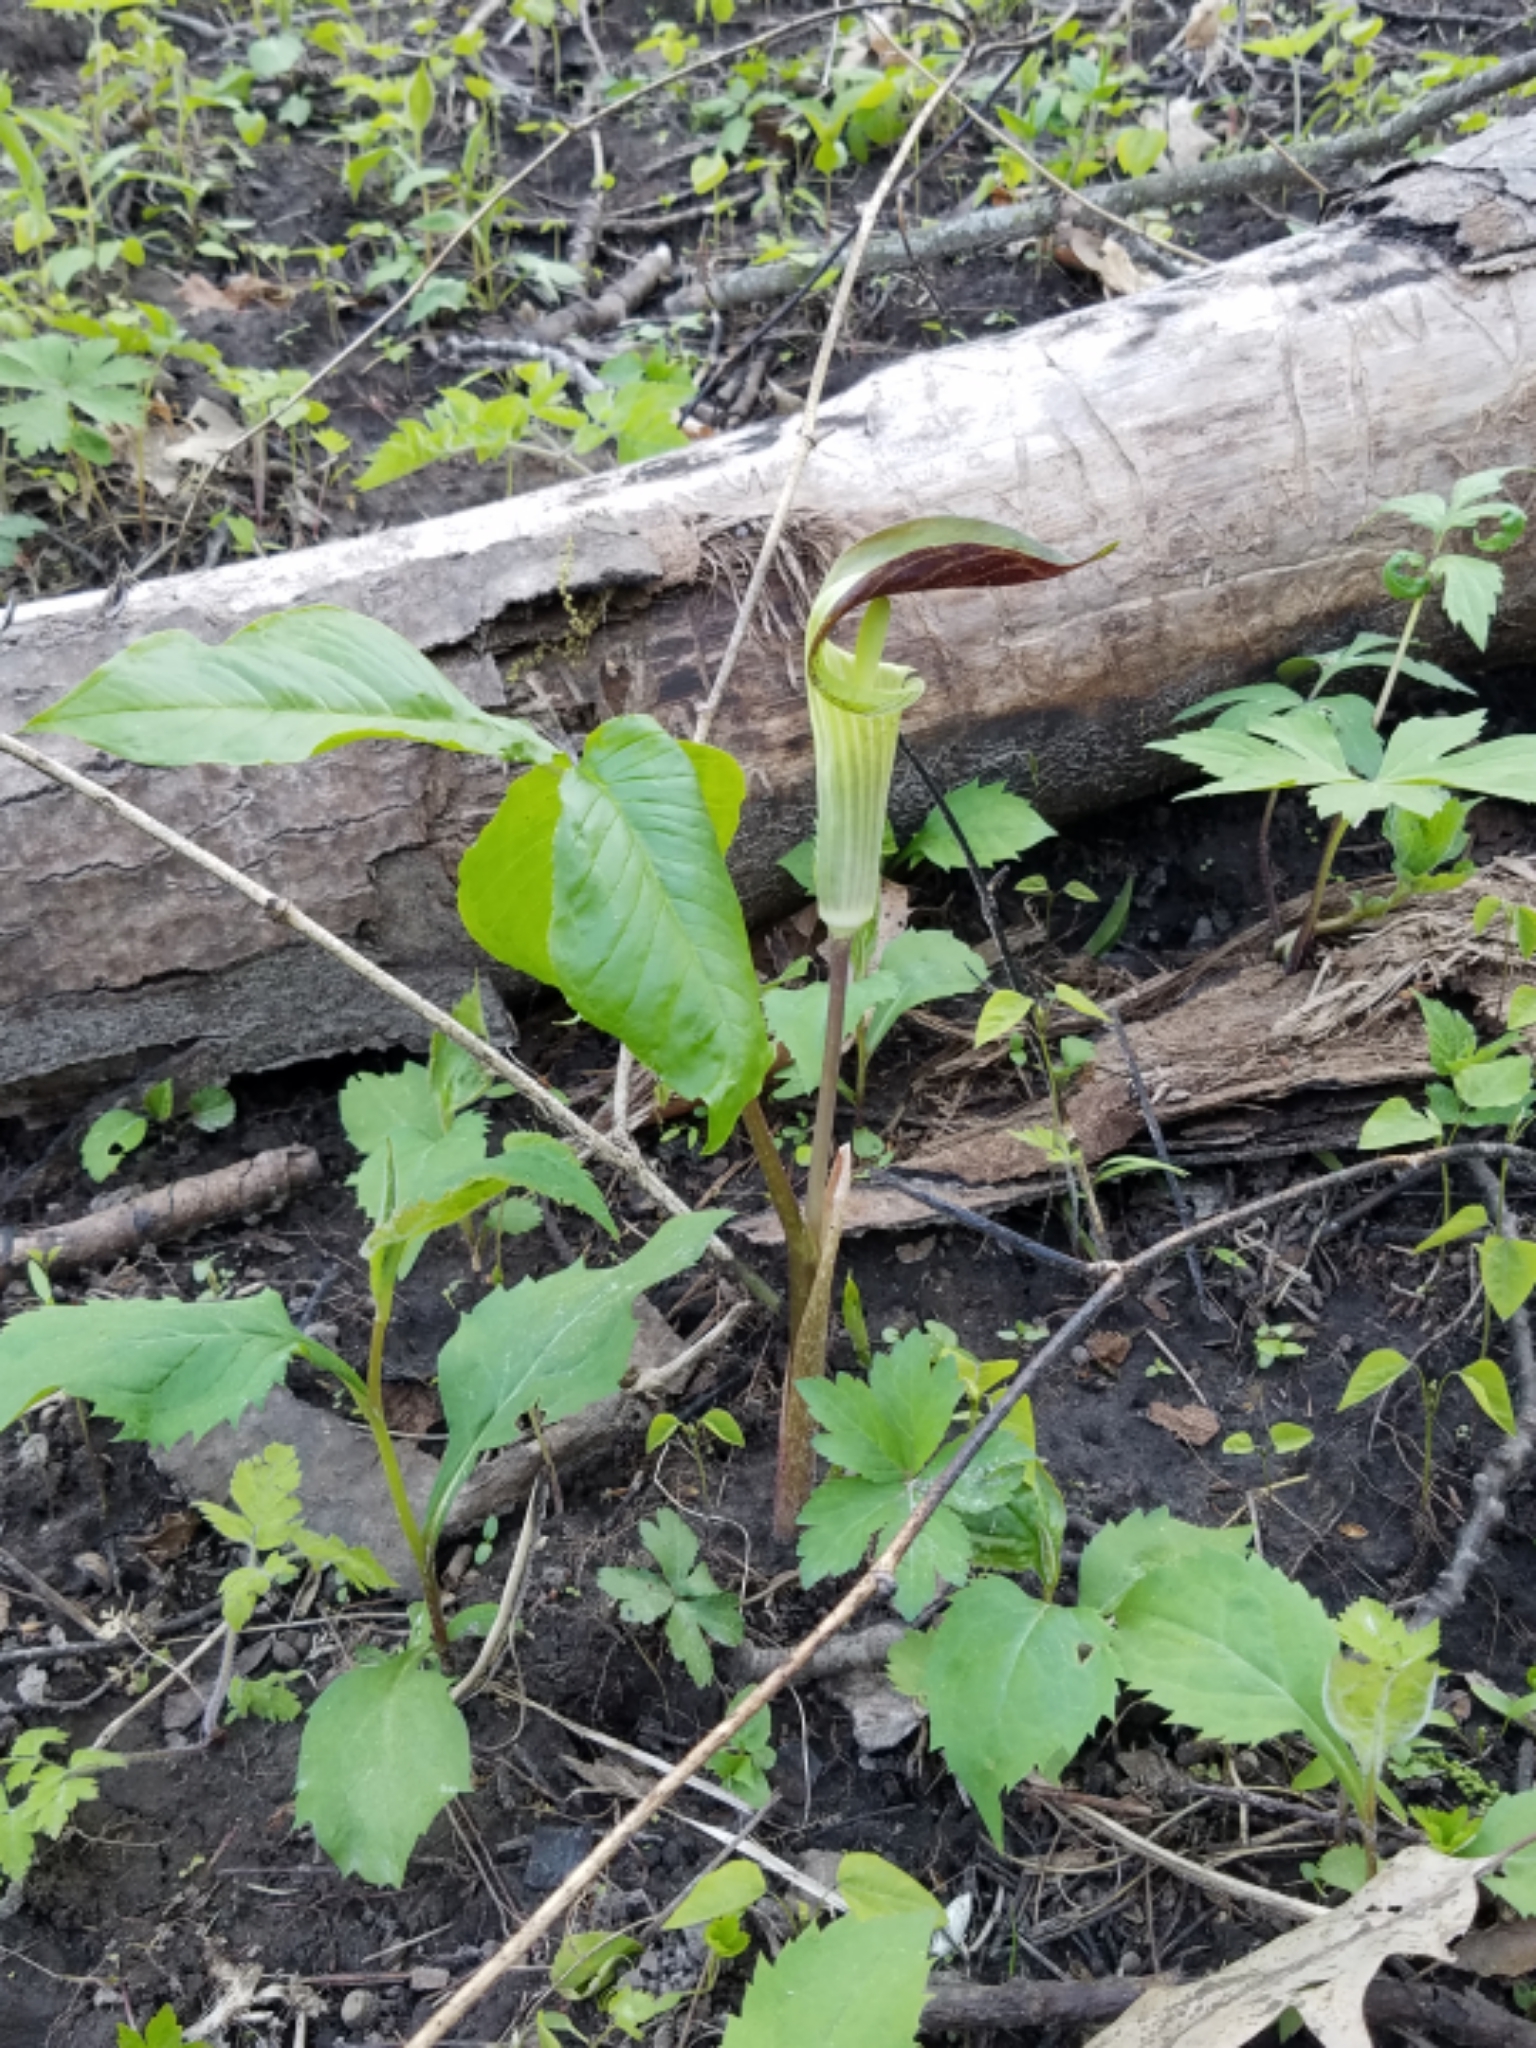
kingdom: Plantae
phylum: Tracheophyta
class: Liliopsida
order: Alismatales
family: Araceae
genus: Arisaema
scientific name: Arisaema triphyllum
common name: Jack-in-the-pulpit
